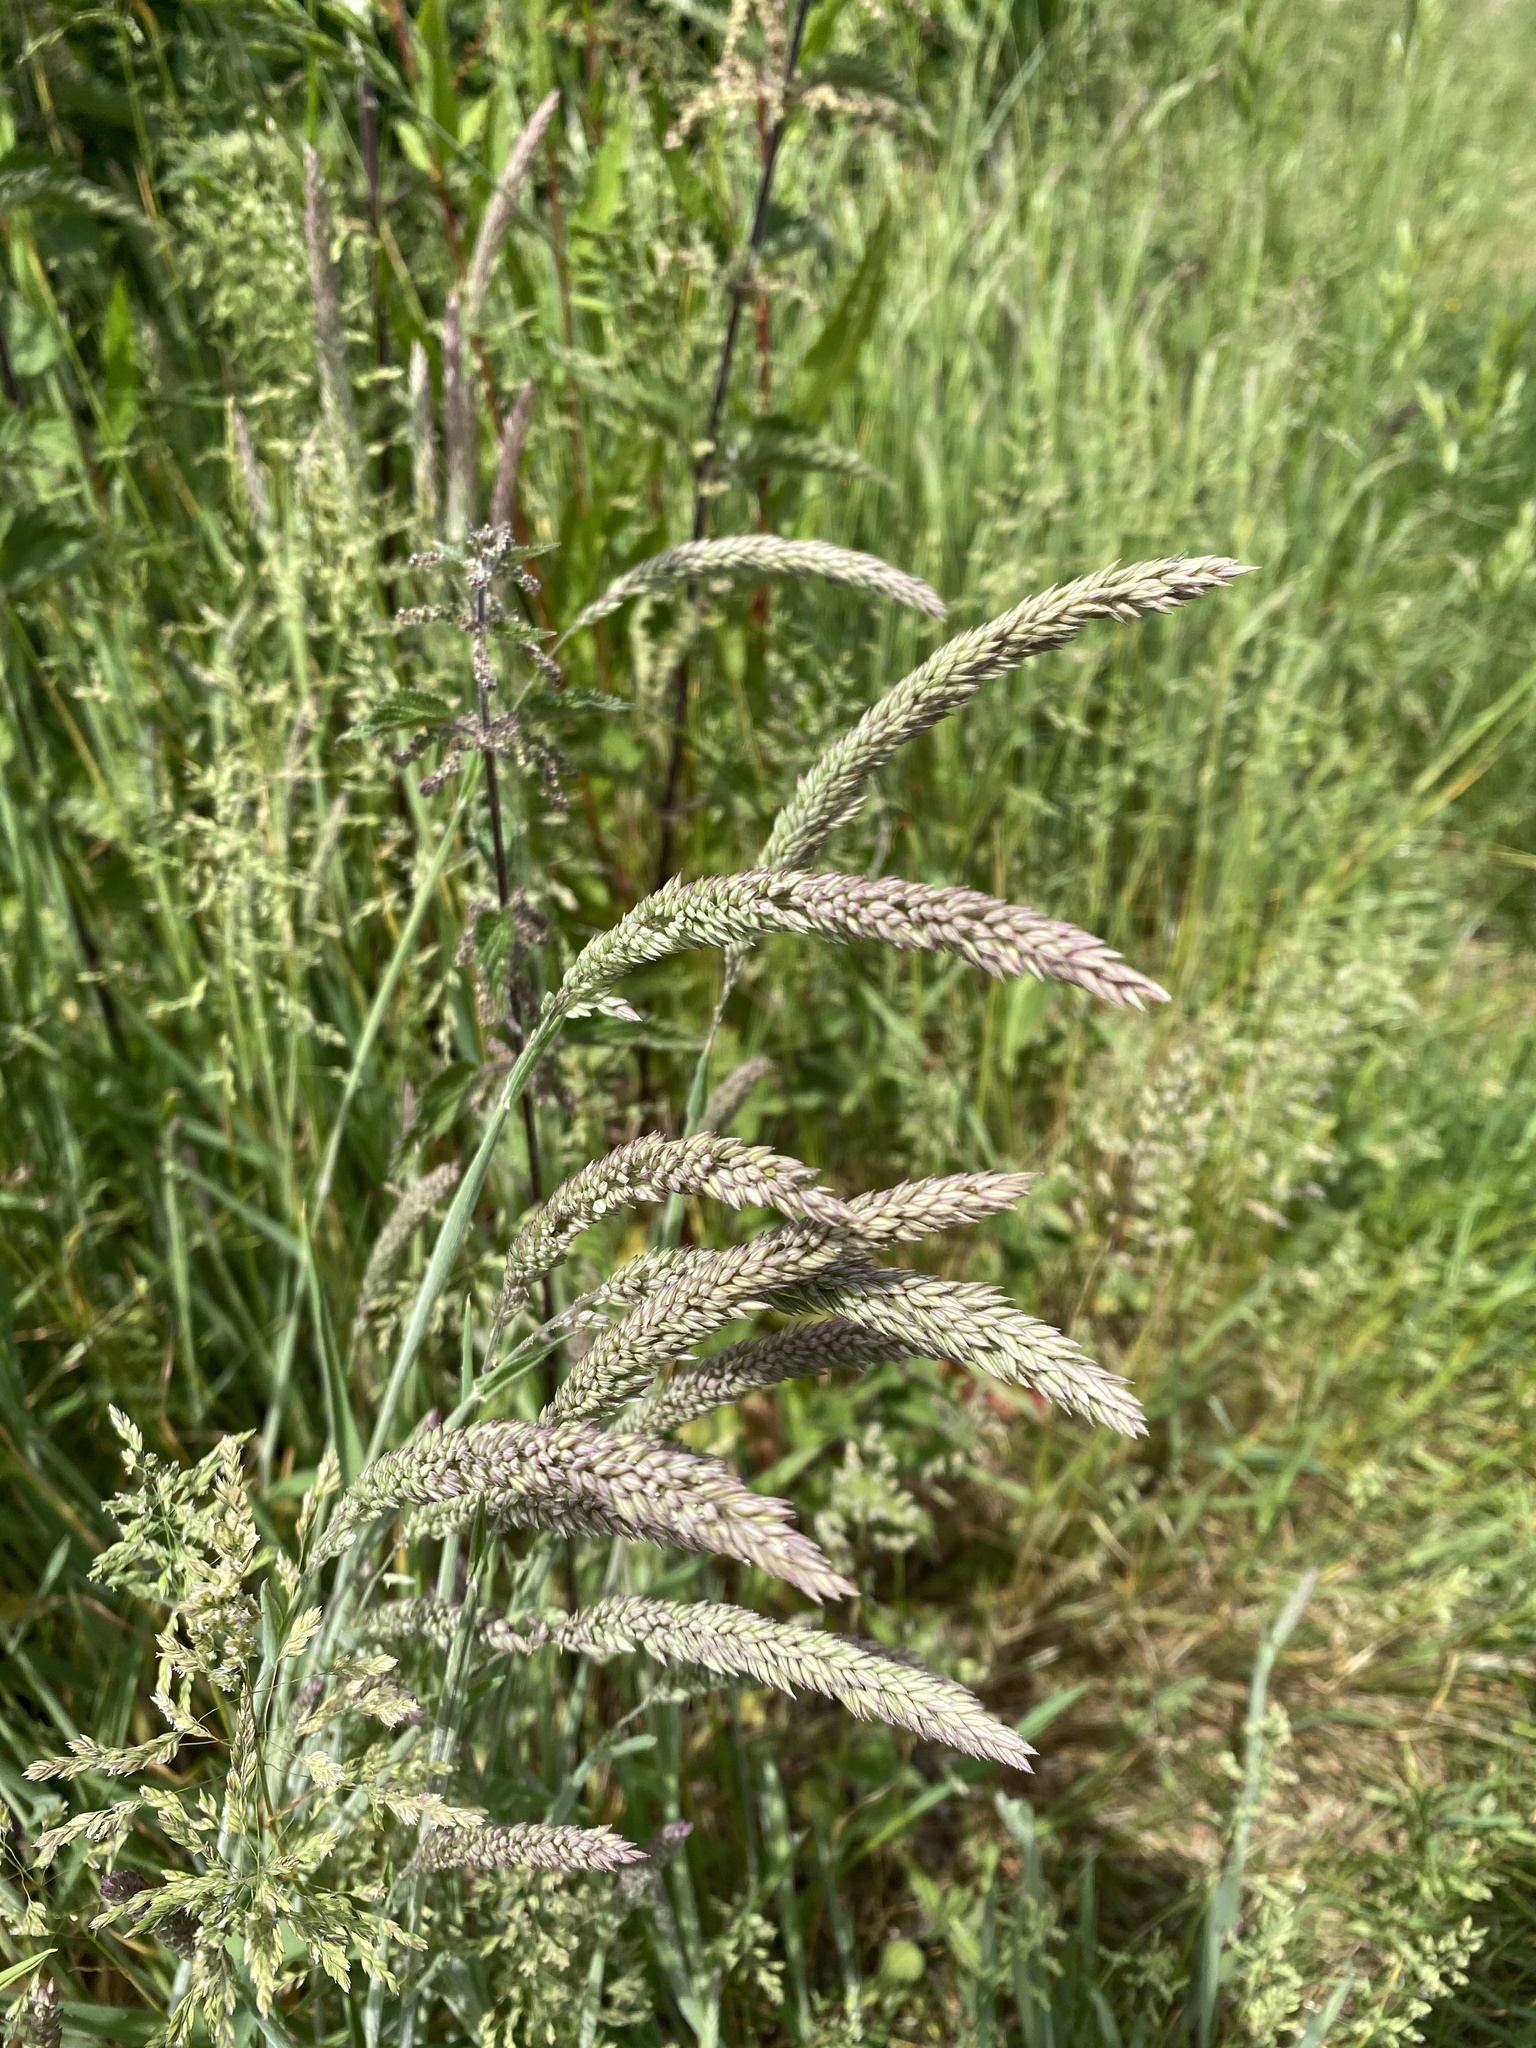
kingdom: Plantae
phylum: Tracheophyta
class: Liliopsida
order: Poales
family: Poaceae
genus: Holcus
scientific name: Holcus lanatus
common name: Yorkshire-fog
